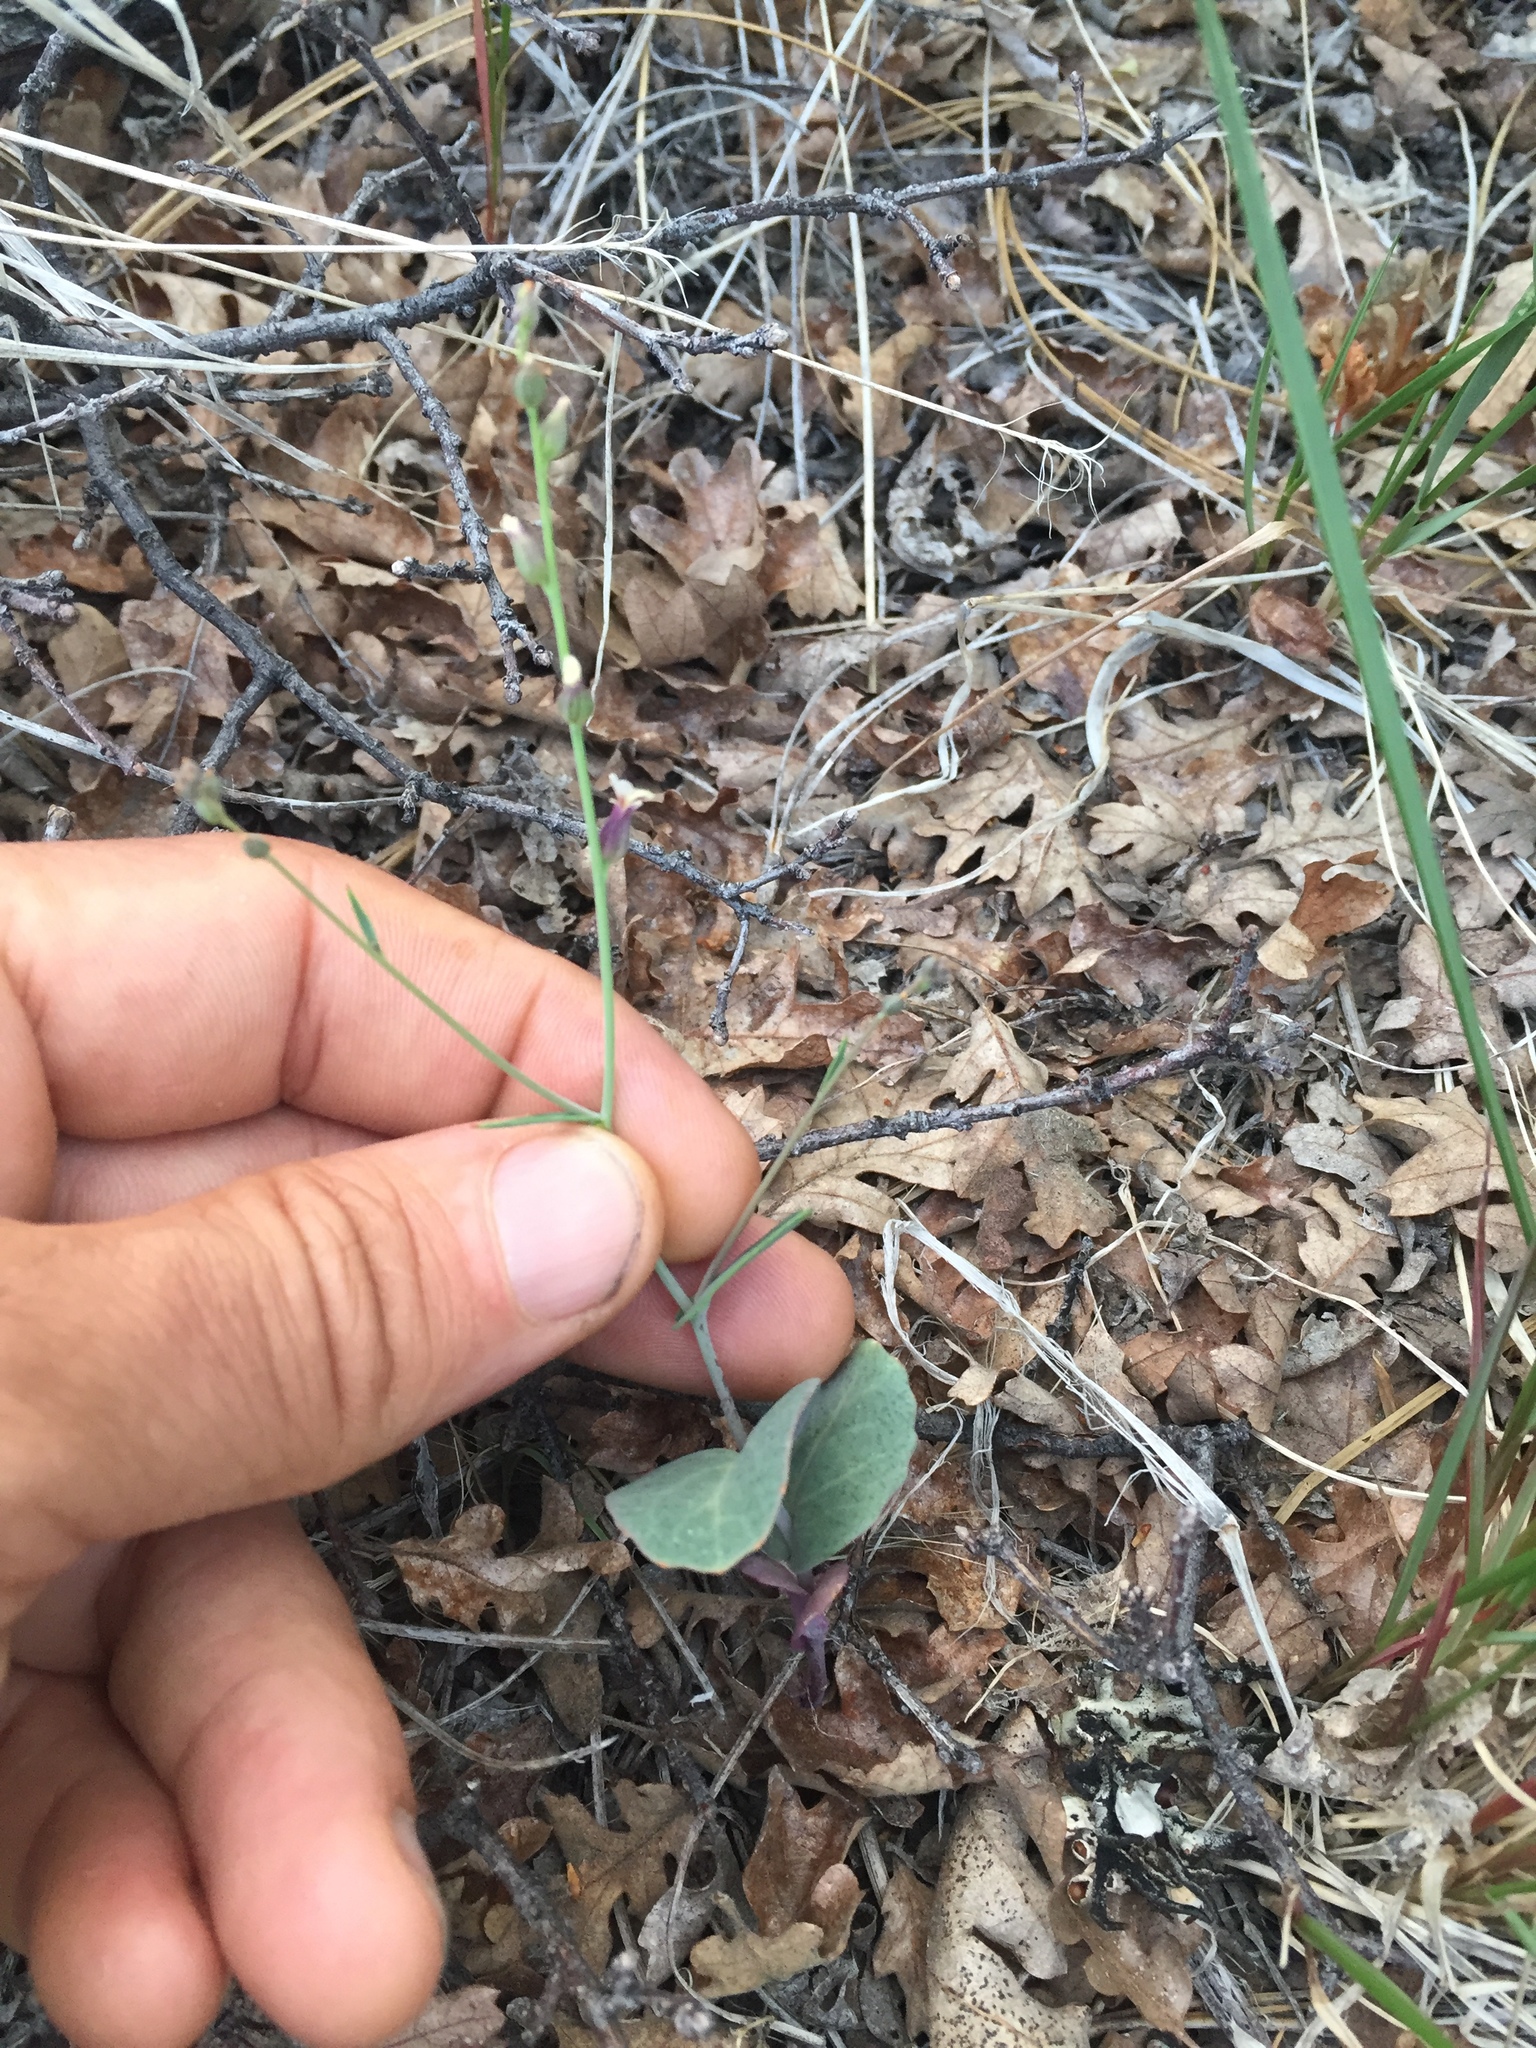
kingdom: Plantae
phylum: Tracheophyta
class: Magnoliopsida
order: Brassicales
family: Brassicaceae
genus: Streptanthus
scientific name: Streptanthus breweri
